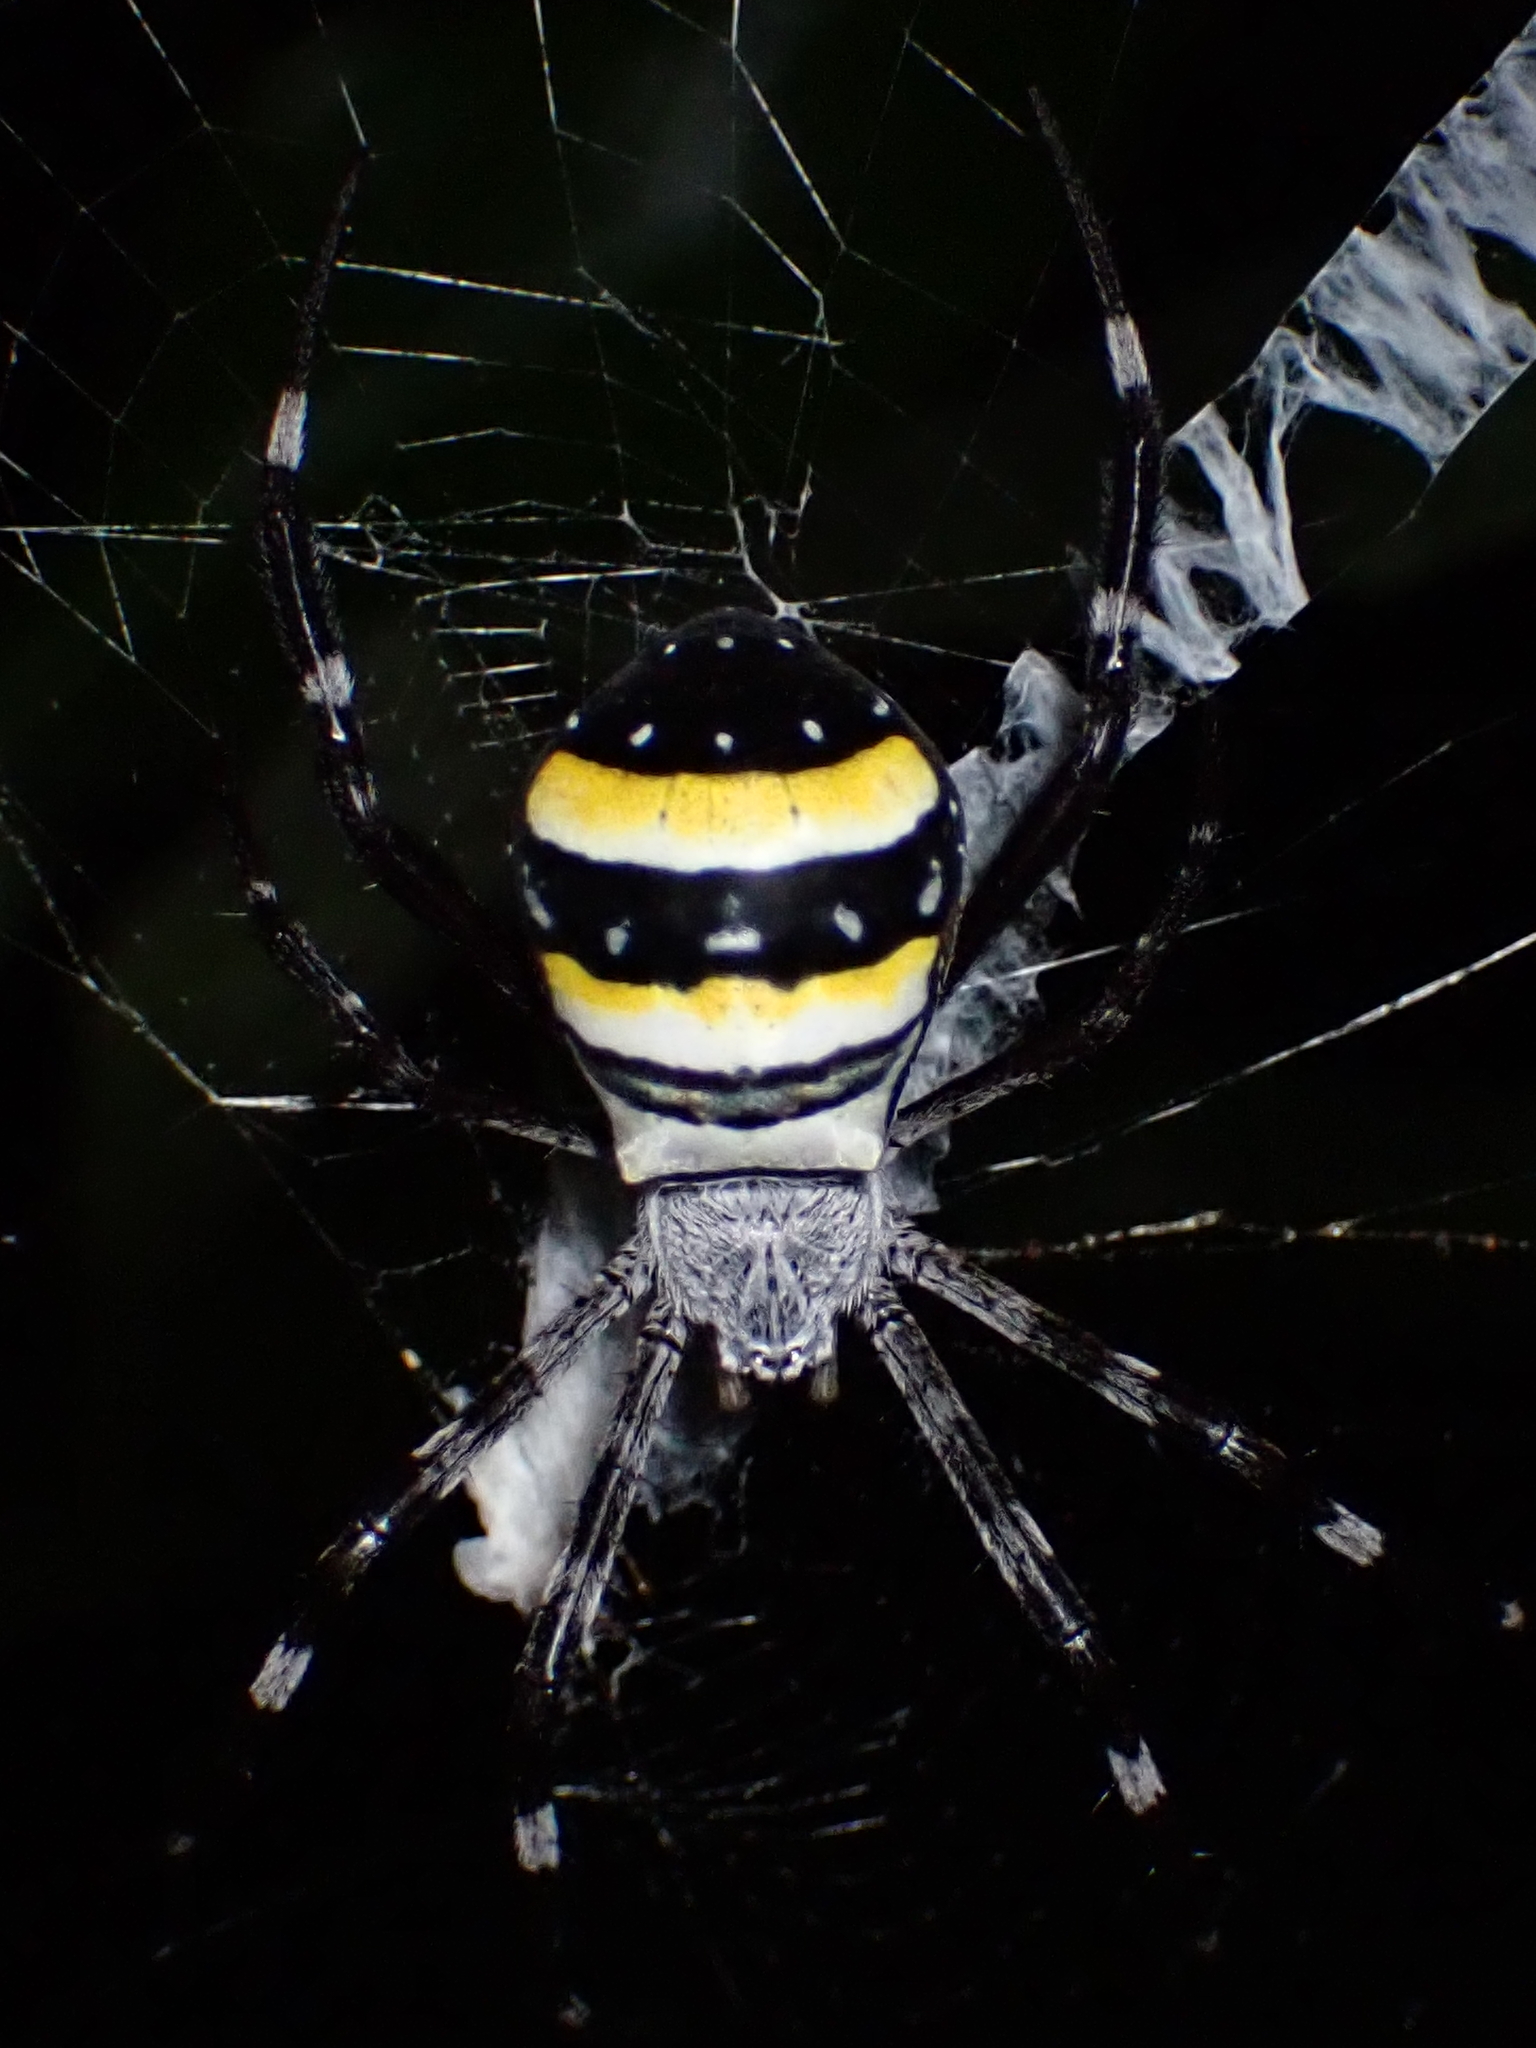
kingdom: Animalia
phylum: Arthropoda
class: Arachnida
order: Araneae
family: Araneidae
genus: Argiope
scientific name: Argiope caledonia
